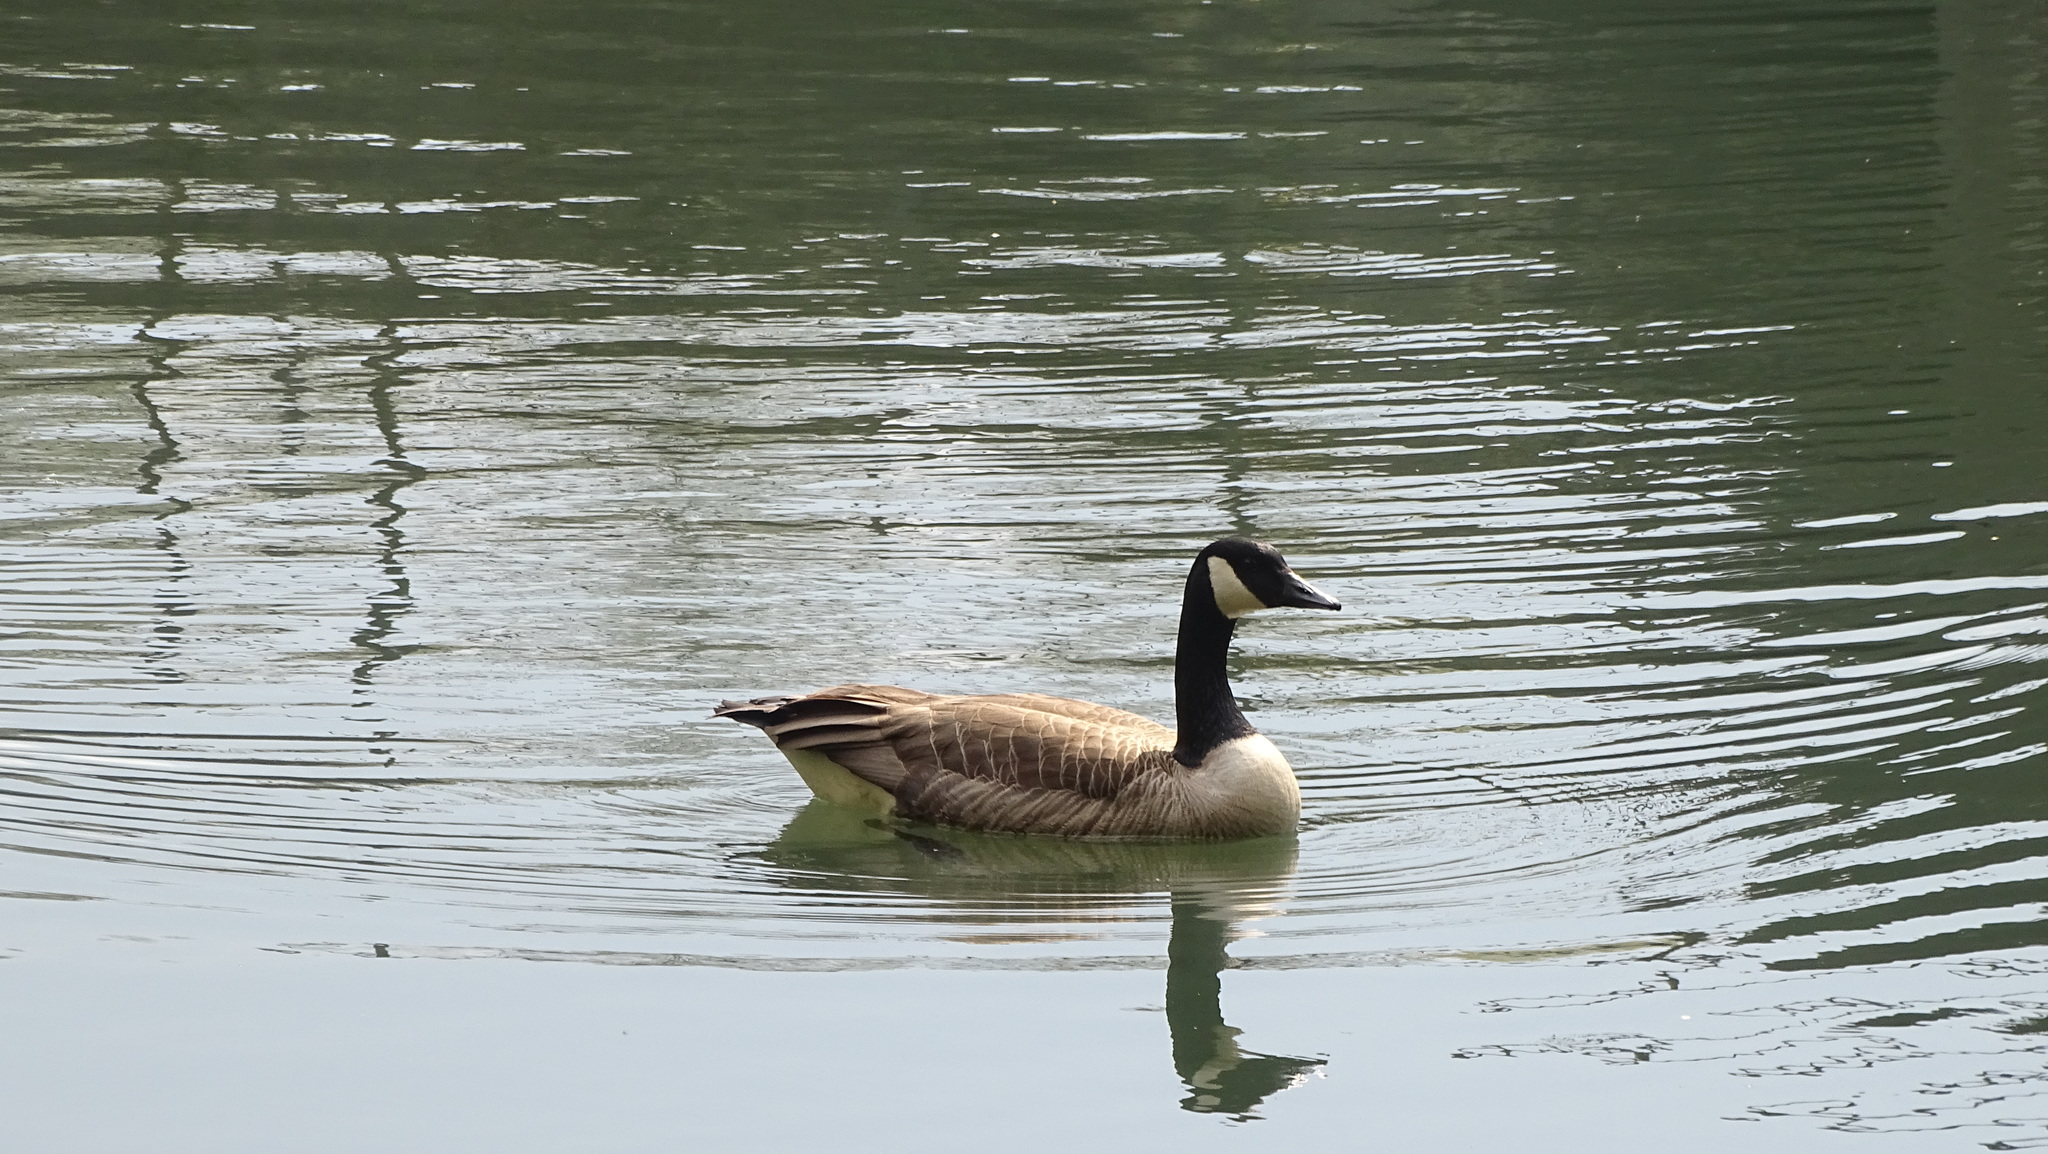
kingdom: Animalia
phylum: Chordata
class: Aves
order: Anseriformes
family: Anatidae
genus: Branta
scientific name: Branta canadensis
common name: Canada goose
